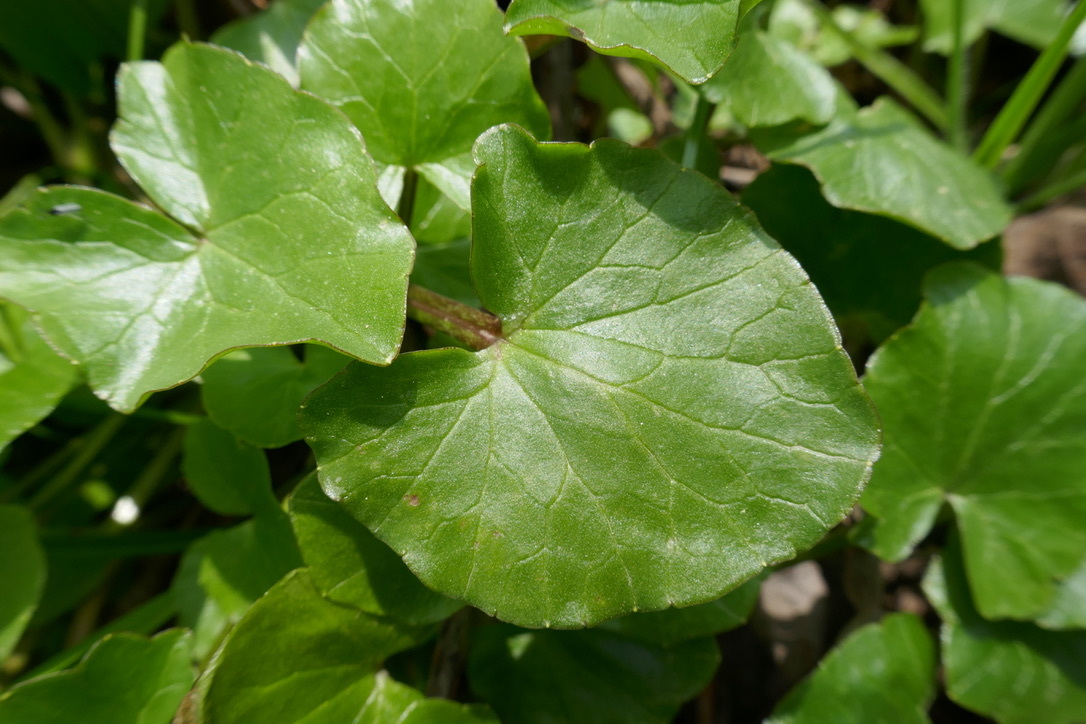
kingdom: Plantae
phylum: Tracheophyta
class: Magnoliopsida
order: Ranunculales
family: Ranunculaceae
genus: Ficaria
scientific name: Ficaria verna
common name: Lesser celandine
